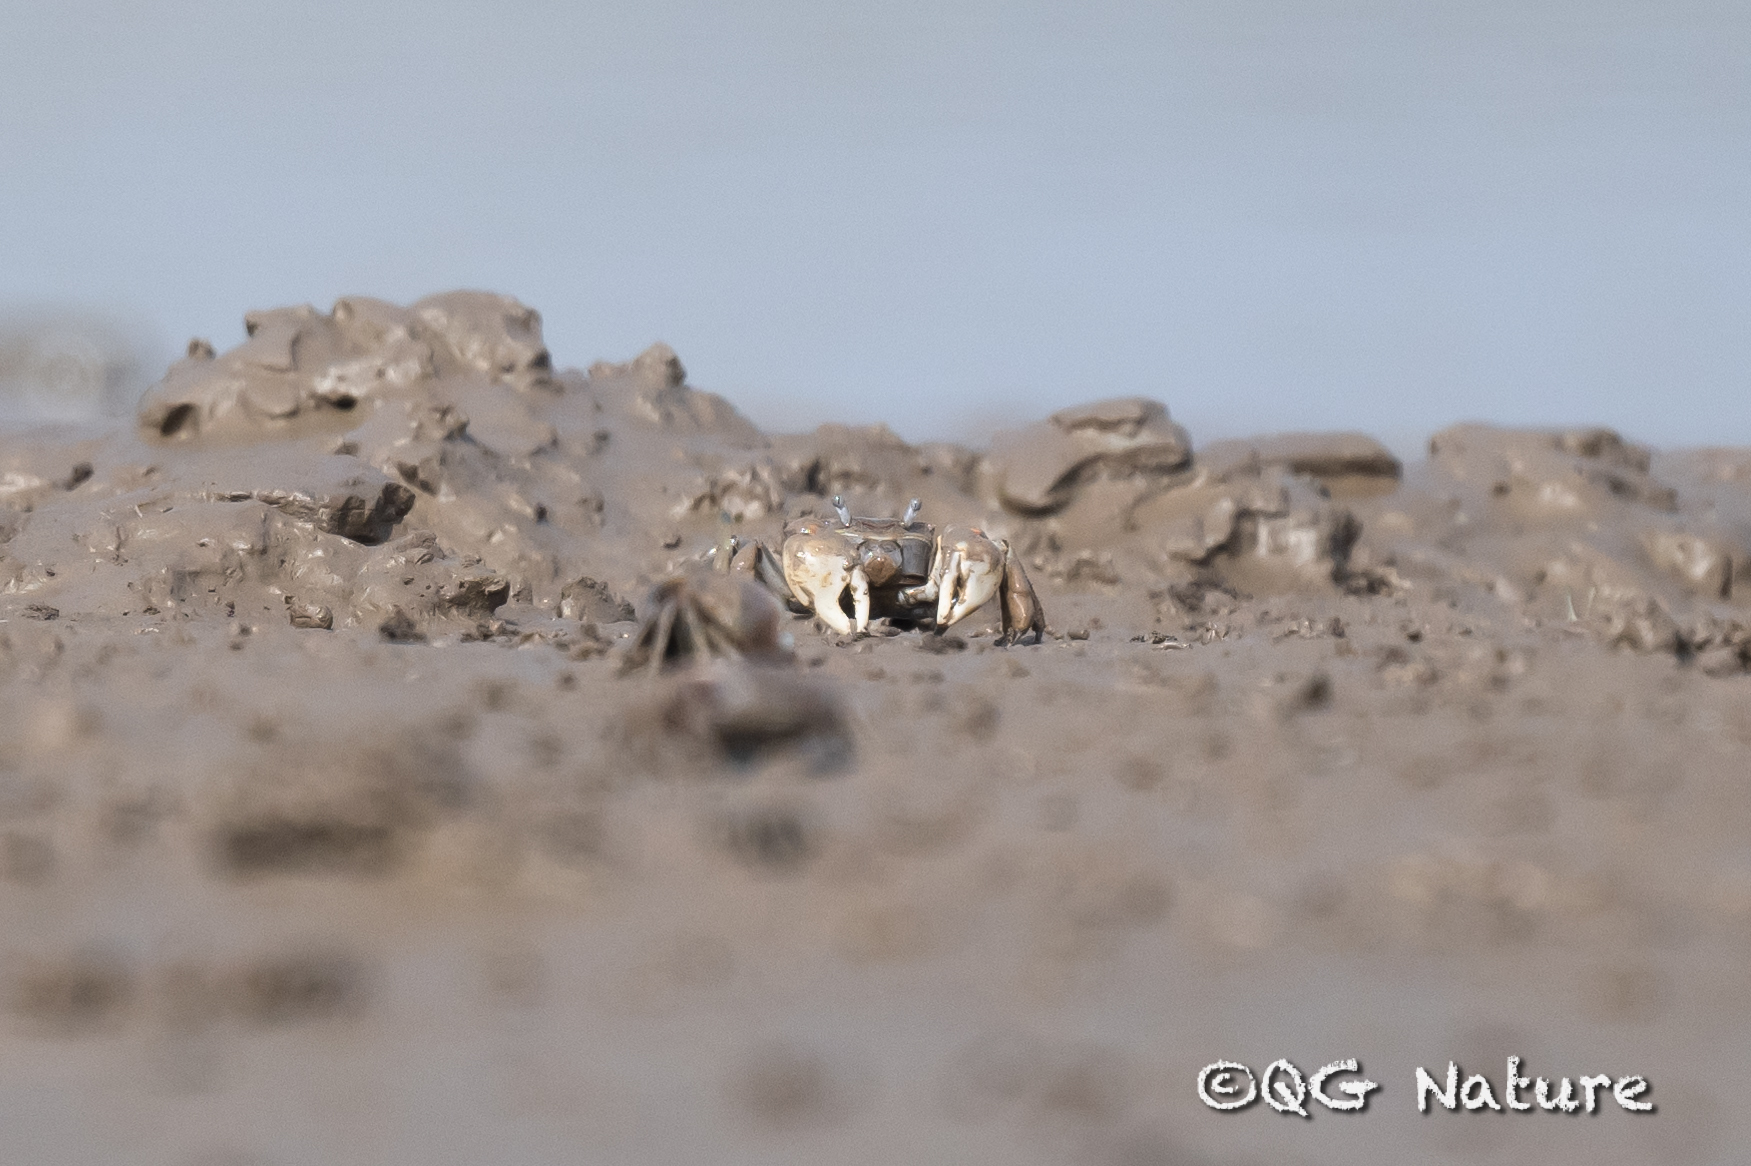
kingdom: Animalia
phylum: Arthropoda
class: Malacostraca
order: Decapoda
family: Varunidae
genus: Helicana
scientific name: Helicana wuana
